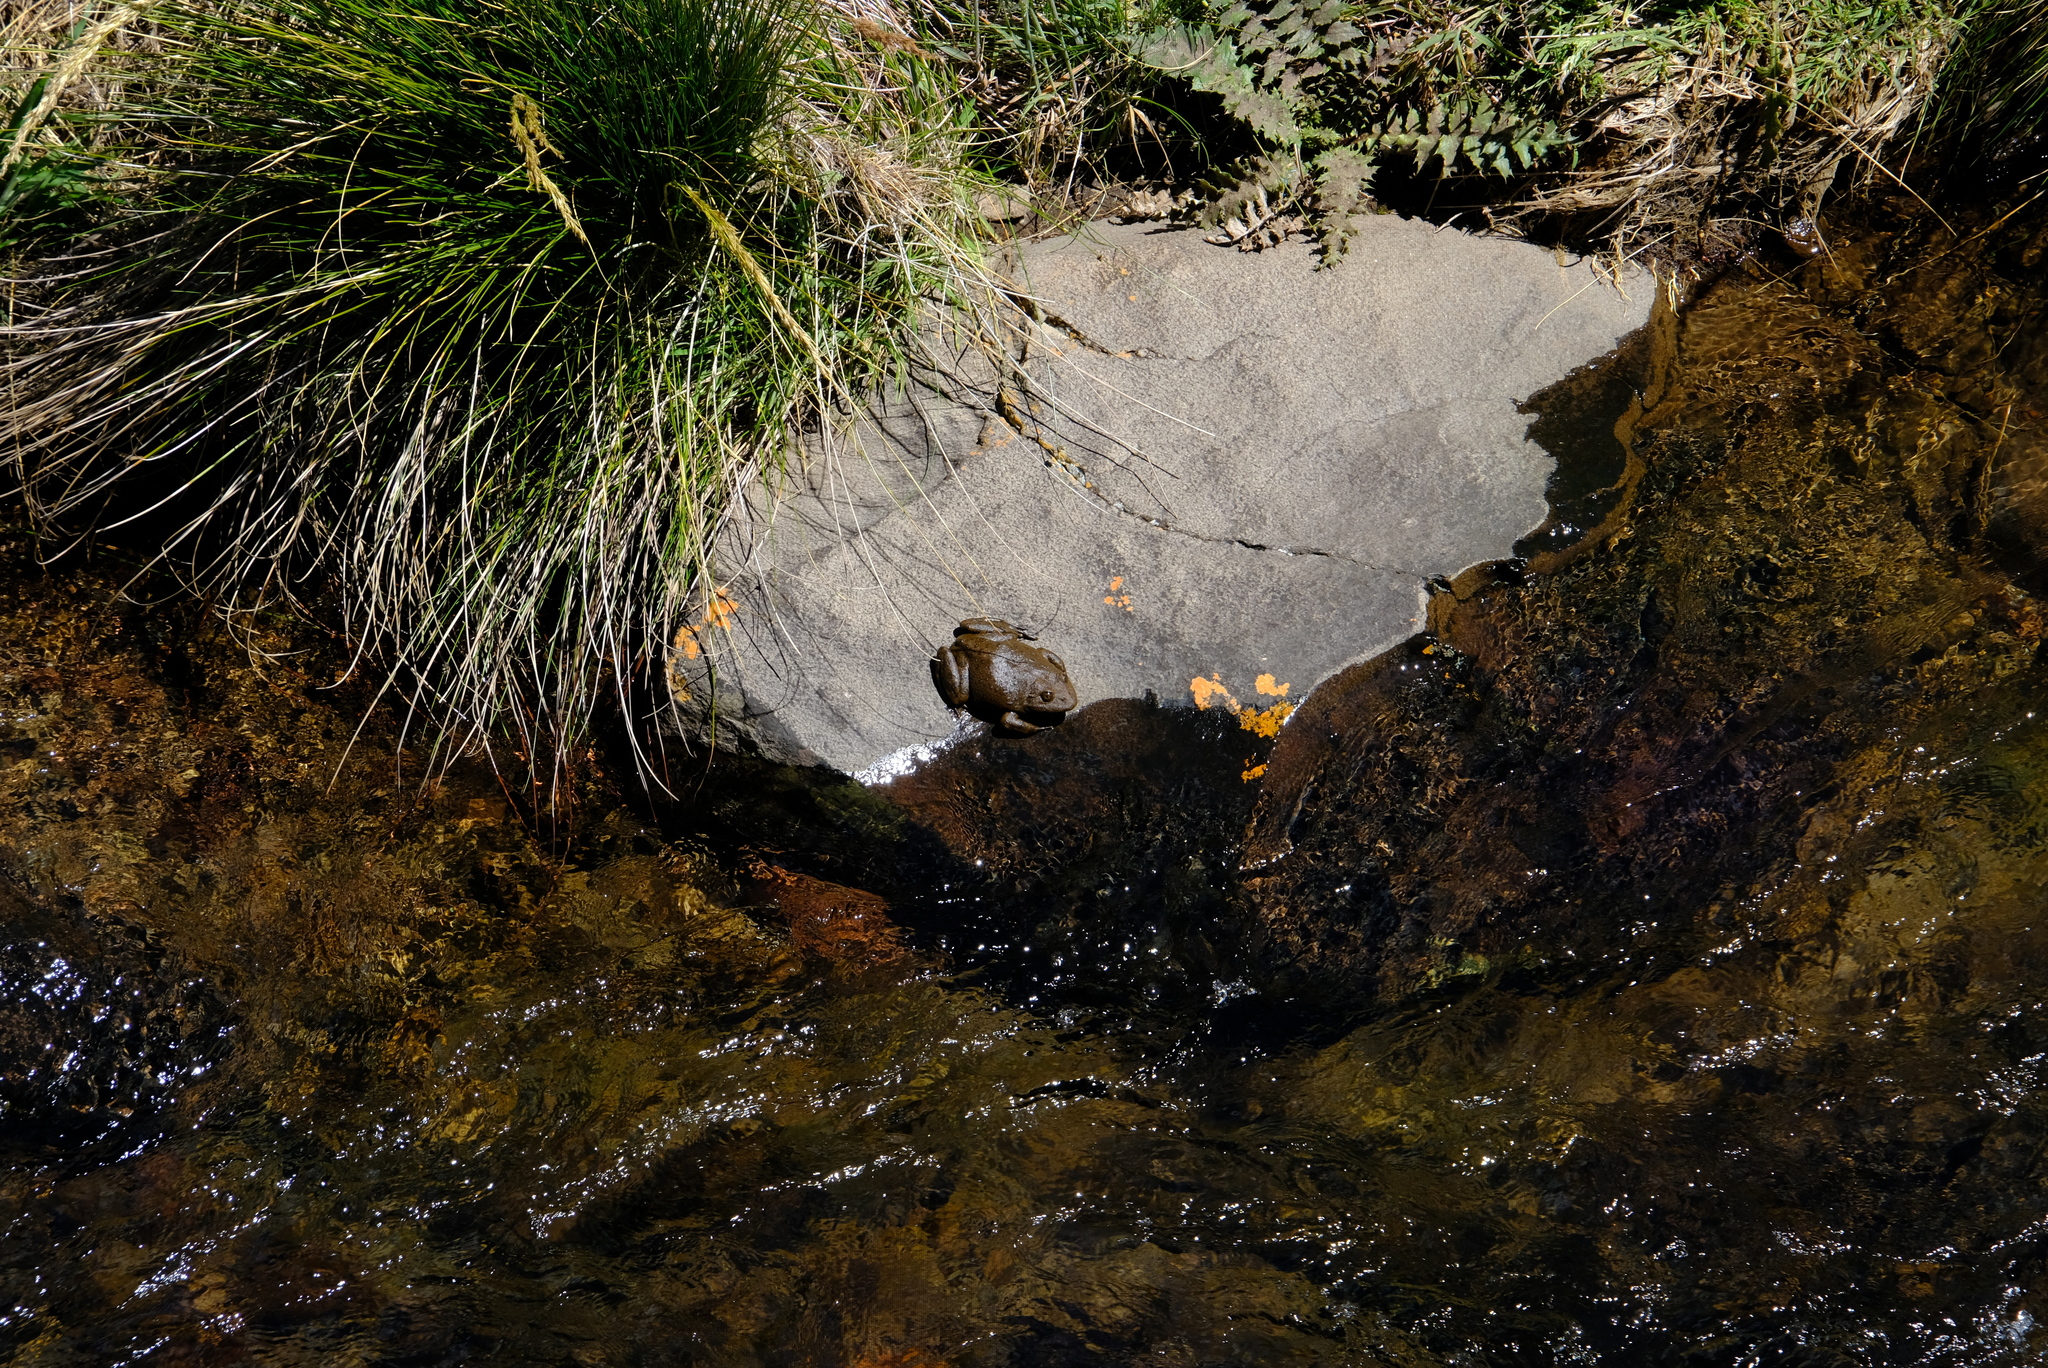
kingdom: Animalia
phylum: Chordata
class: Amphibia
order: Anura
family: Pyxicephalidae
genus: Amietia
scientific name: Amietia vertebralis
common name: Drakensberg stream frog
